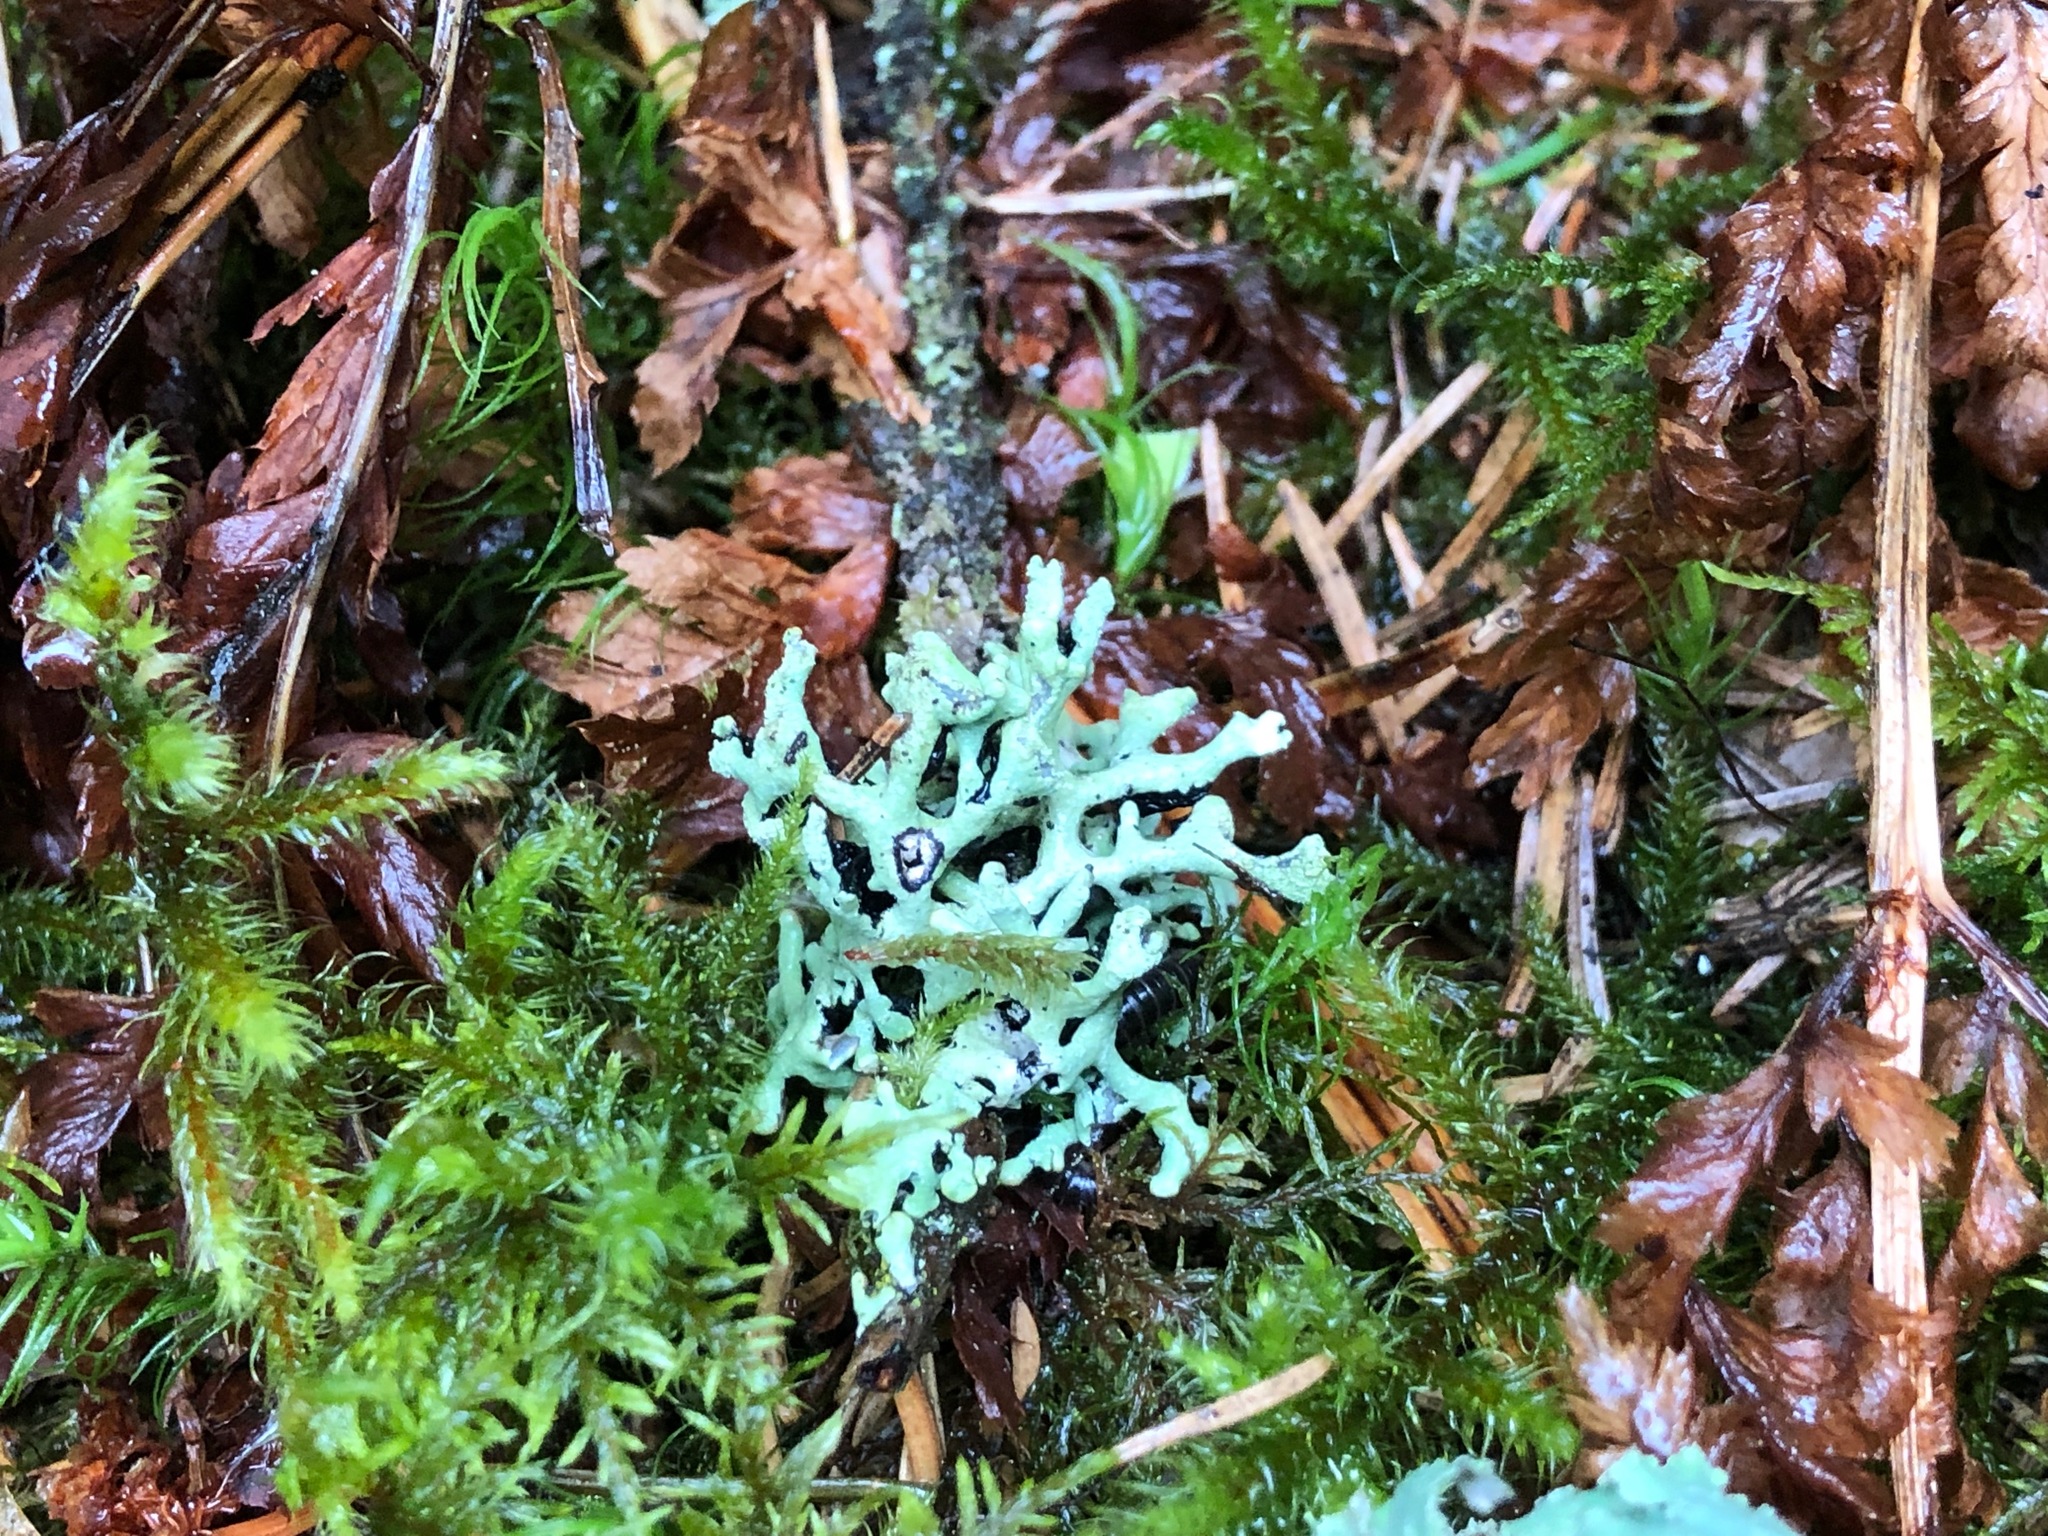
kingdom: Fungi
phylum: Ascomycota
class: Lecanoromycetes
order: Lecanorales
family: Parmeliaceae
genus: Hypogymnia
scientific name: Hypogymnia tubulosa
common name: Powder-headed tube lichen
